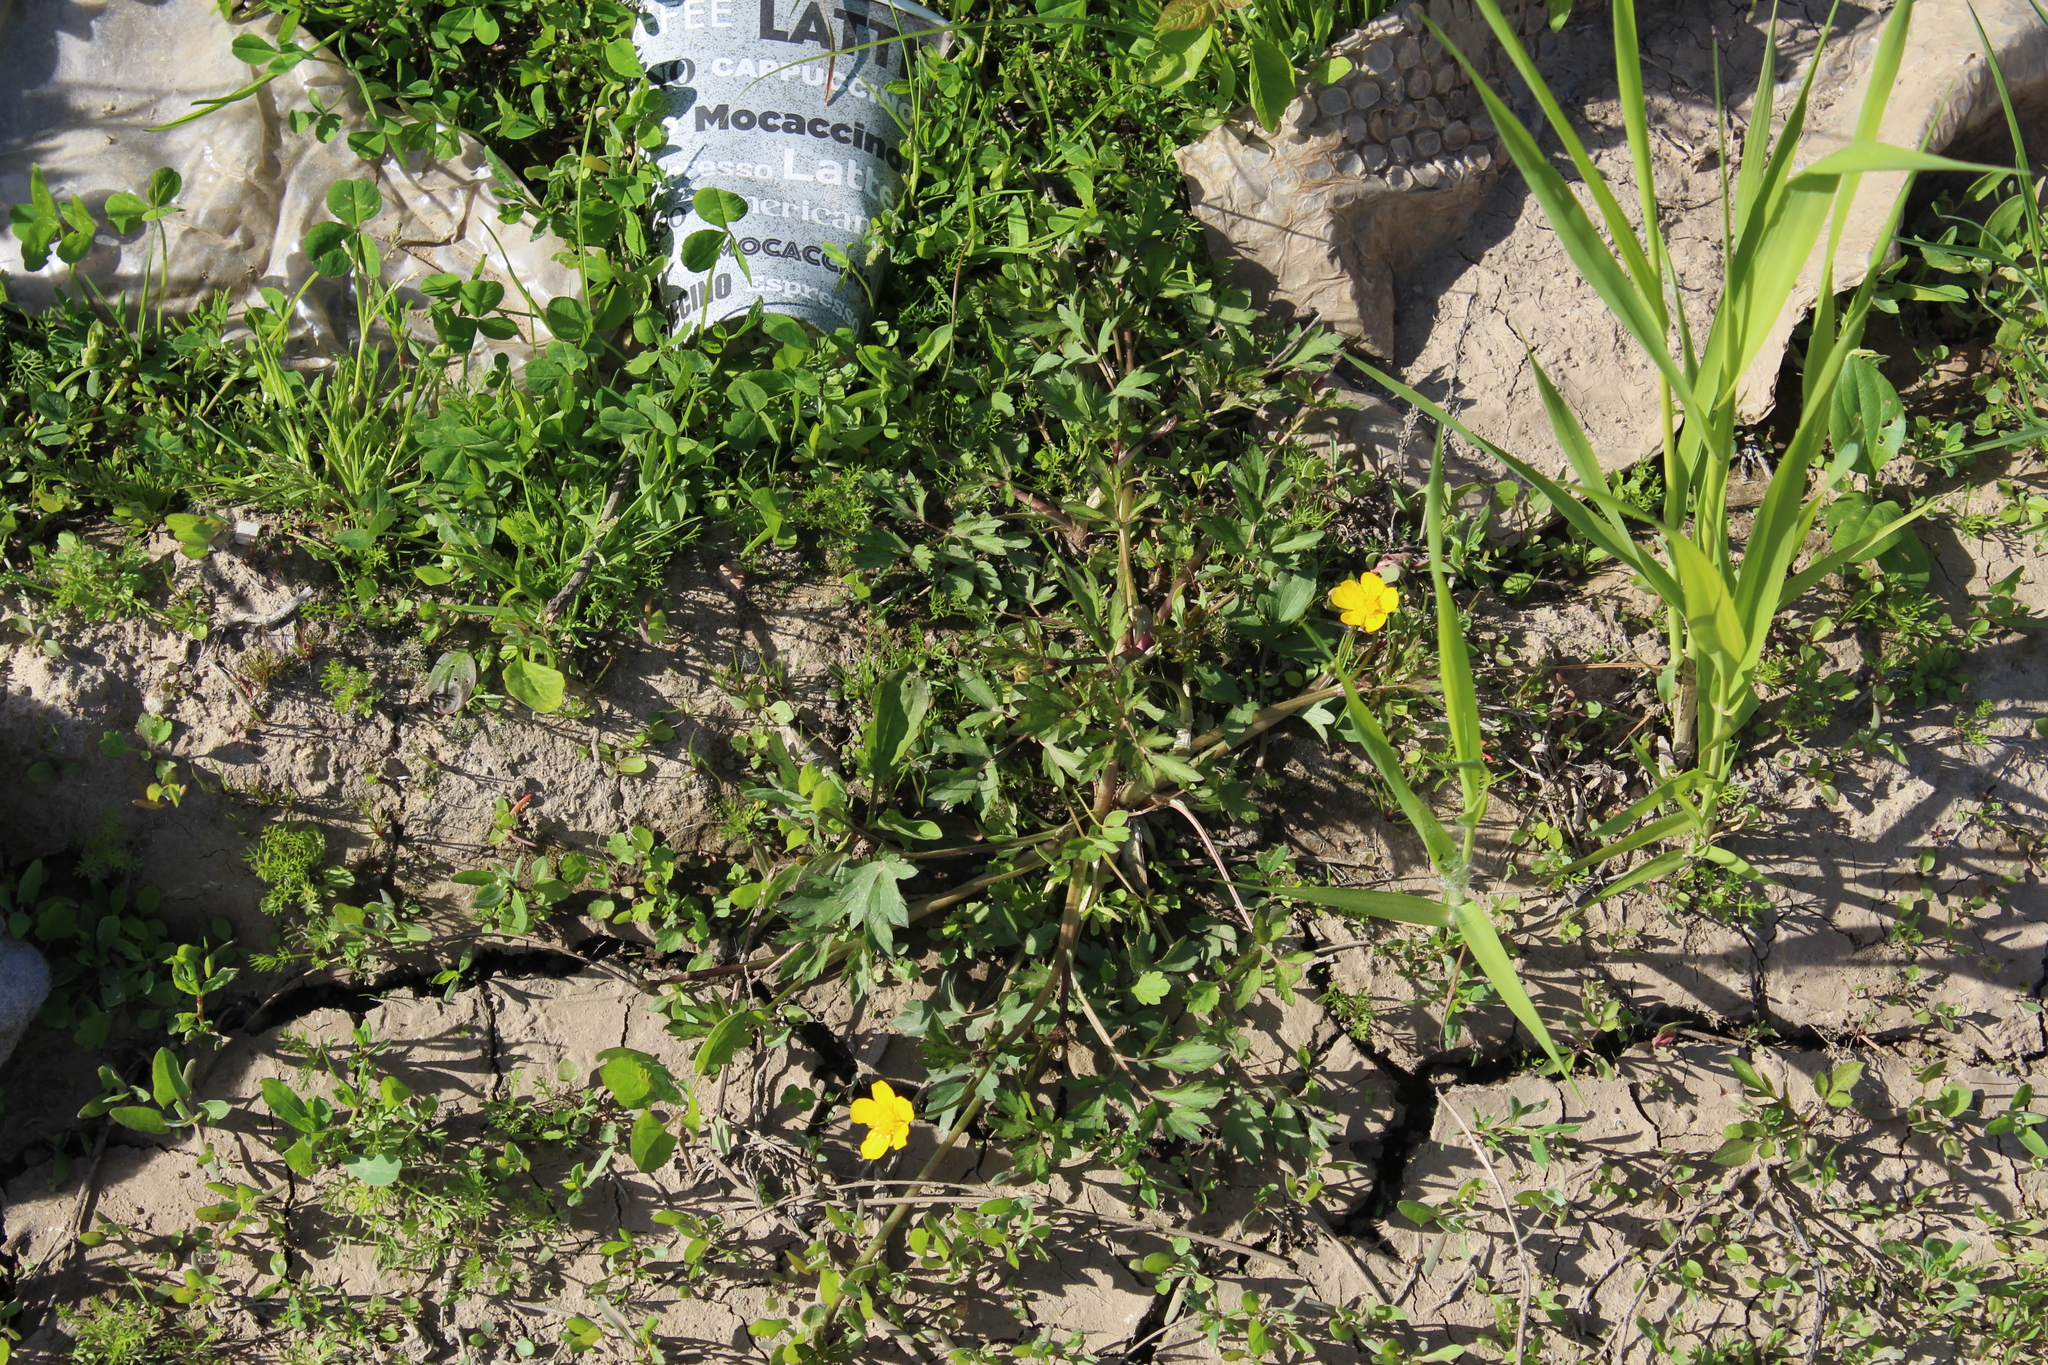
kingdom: Plantae
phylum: Tracheophyta
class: Magnoliopsida
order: Ranunculales
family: Ranunculaceae
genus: Ranunculus
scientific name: Ranunculus repens
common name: Creeping buttercup
